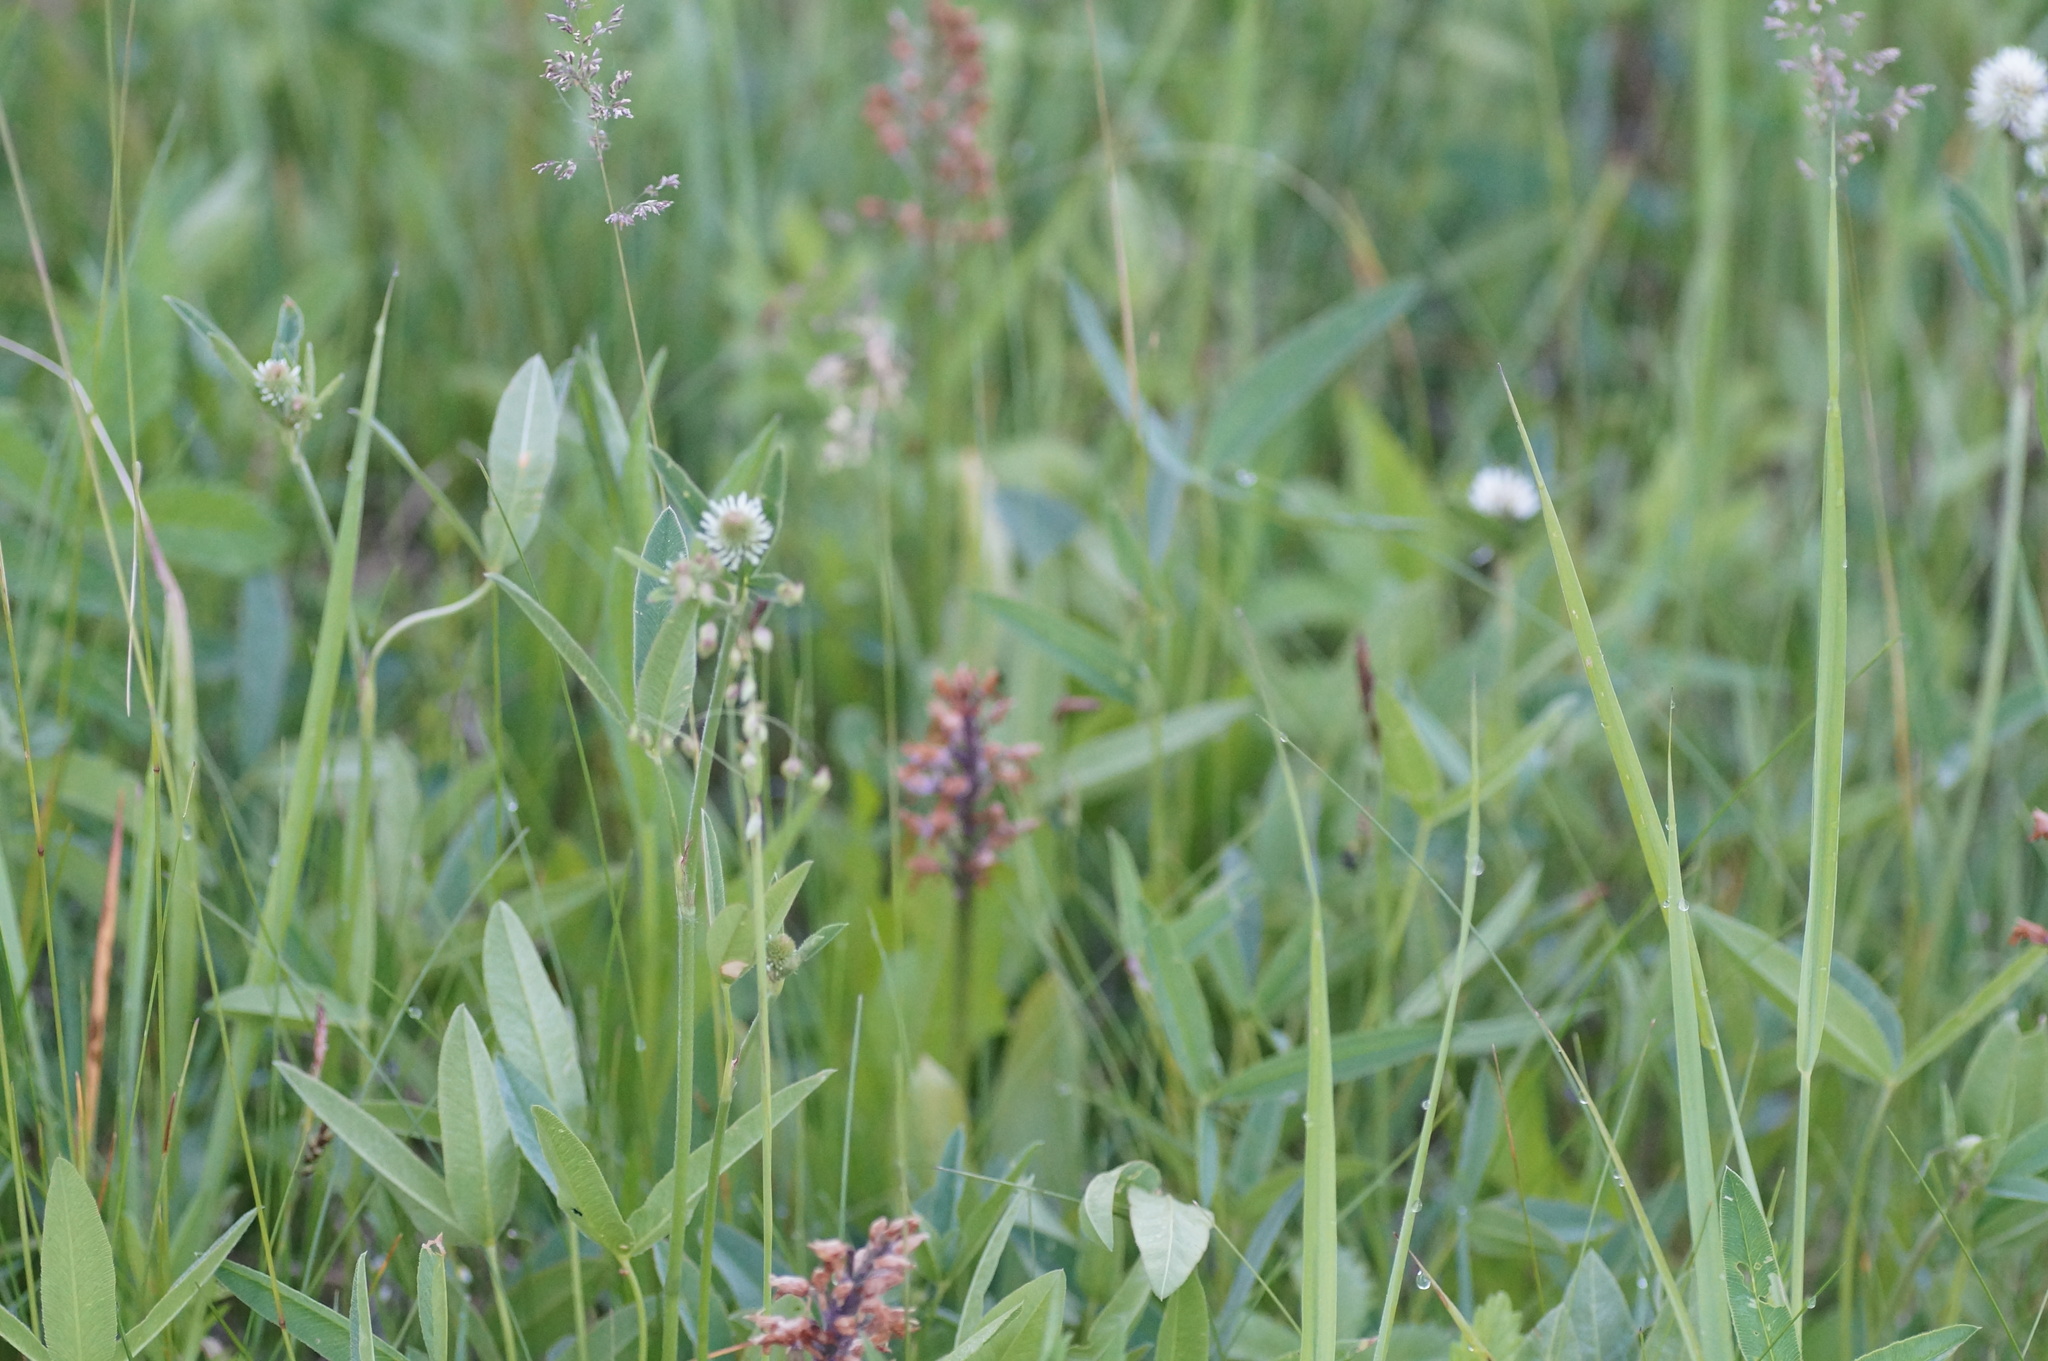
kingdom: Plantae
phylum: Tracheophyta
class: Liliopsida
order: Asparagales
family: Orchidaceae
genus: Orchis
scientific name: Orchis militaris
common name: Military orchid
